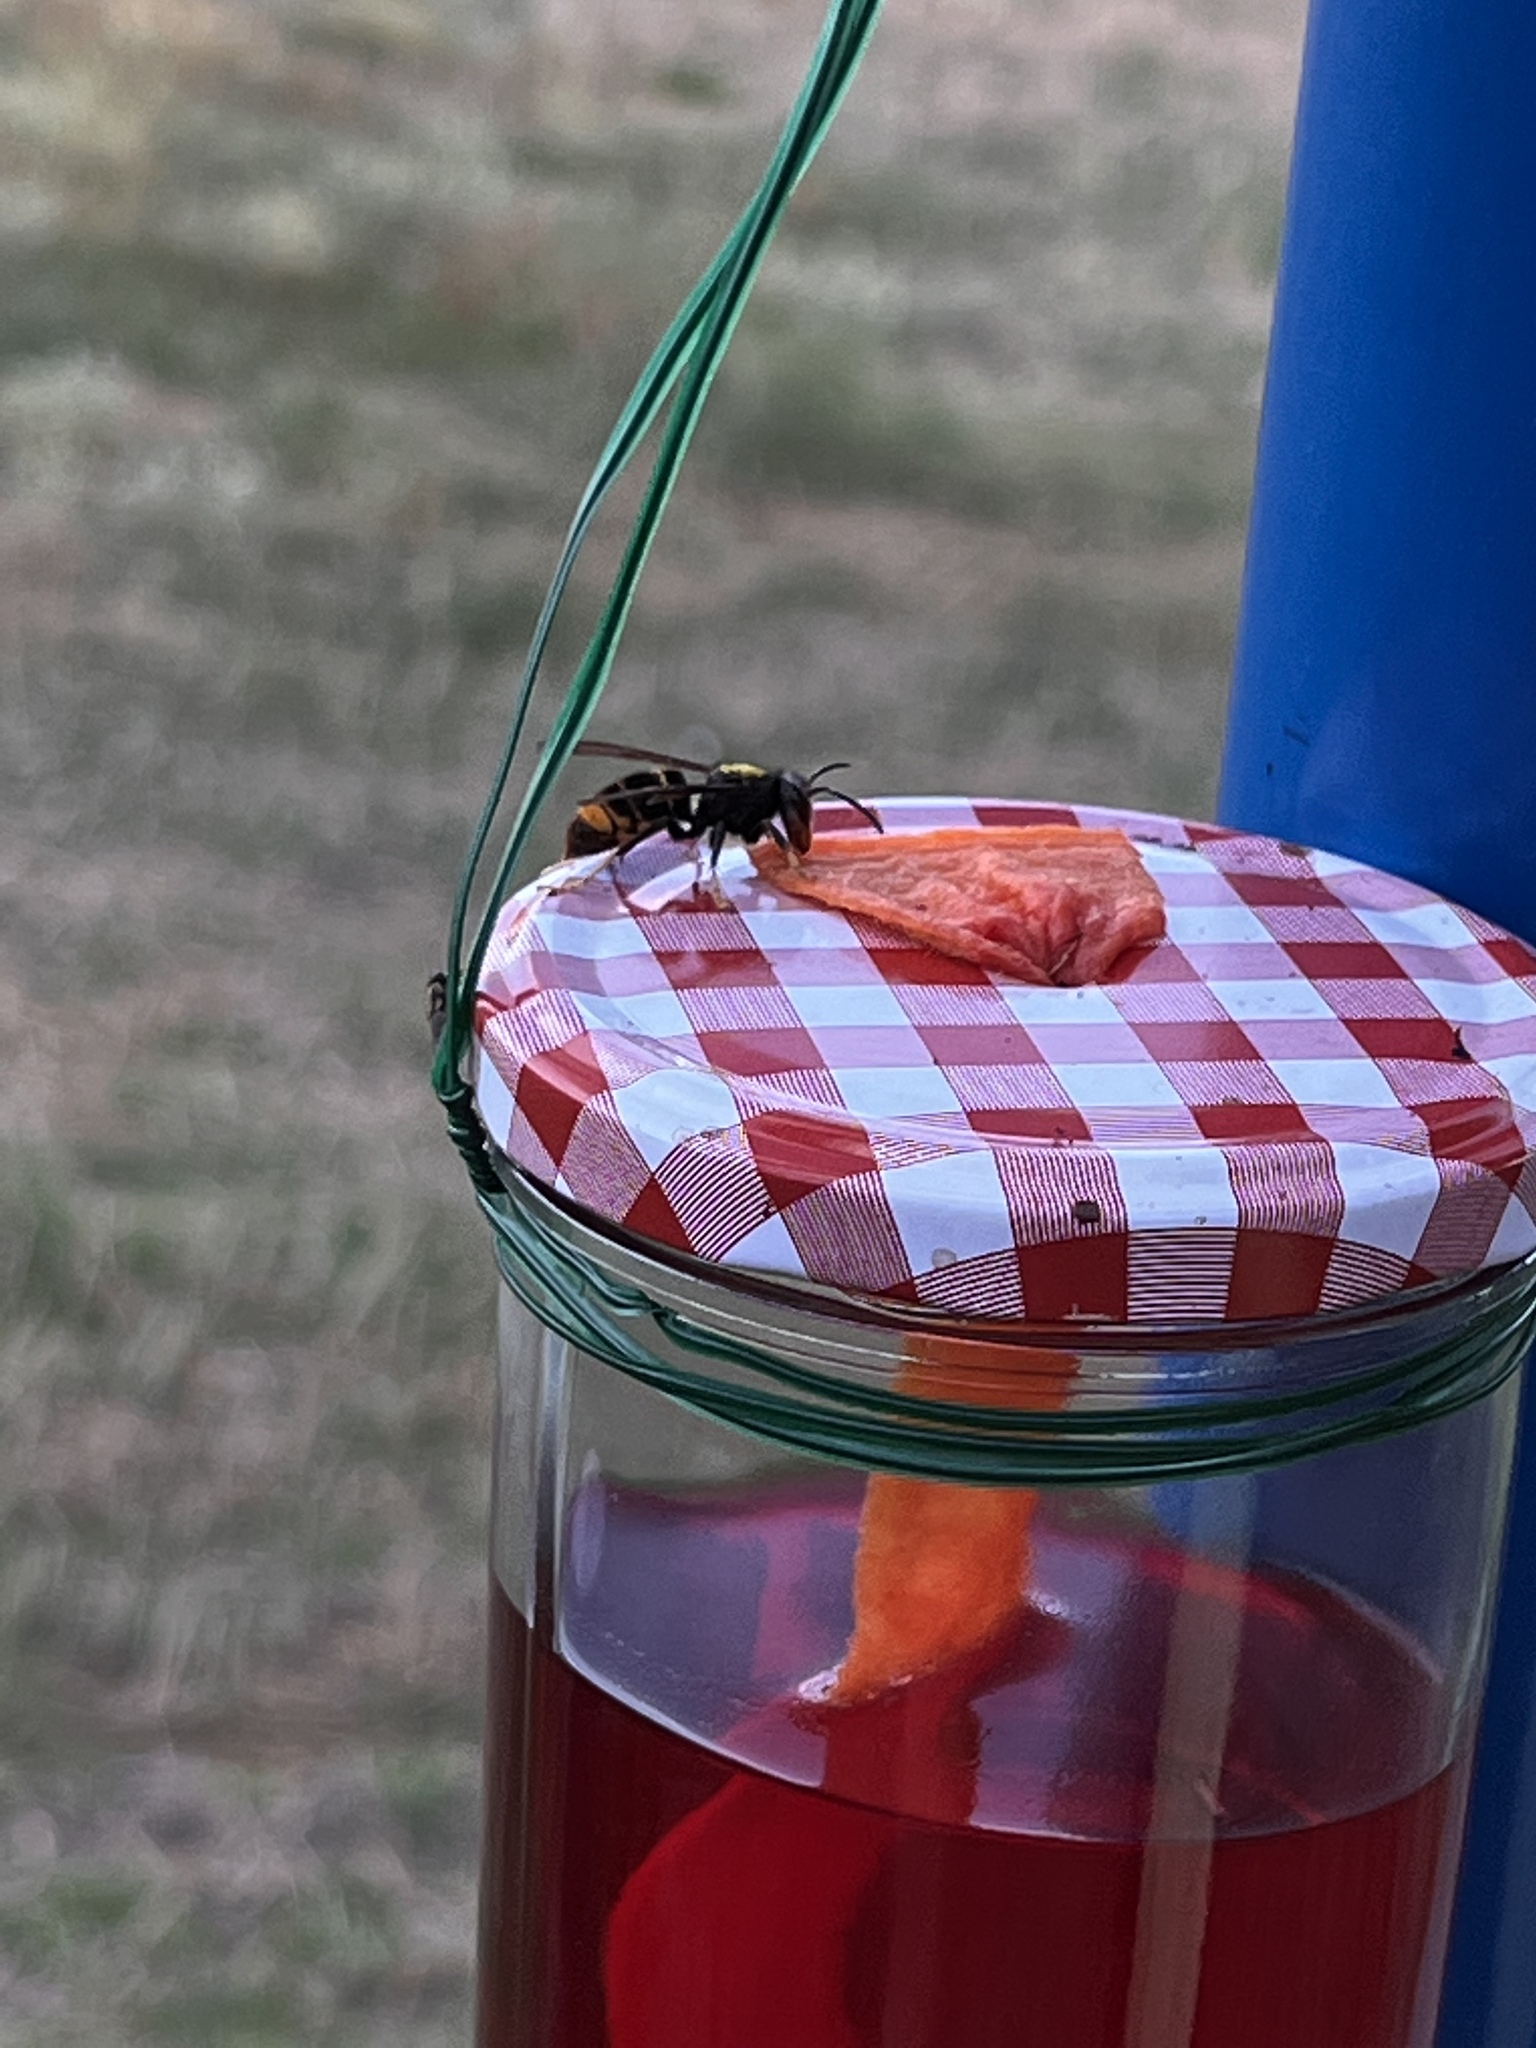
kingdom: Animalia
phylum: Arthropoda
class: Insecta
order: Hymenoptera
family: Vespidae
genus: Vespa
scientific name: Vespa velutina
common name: Asian hornet
